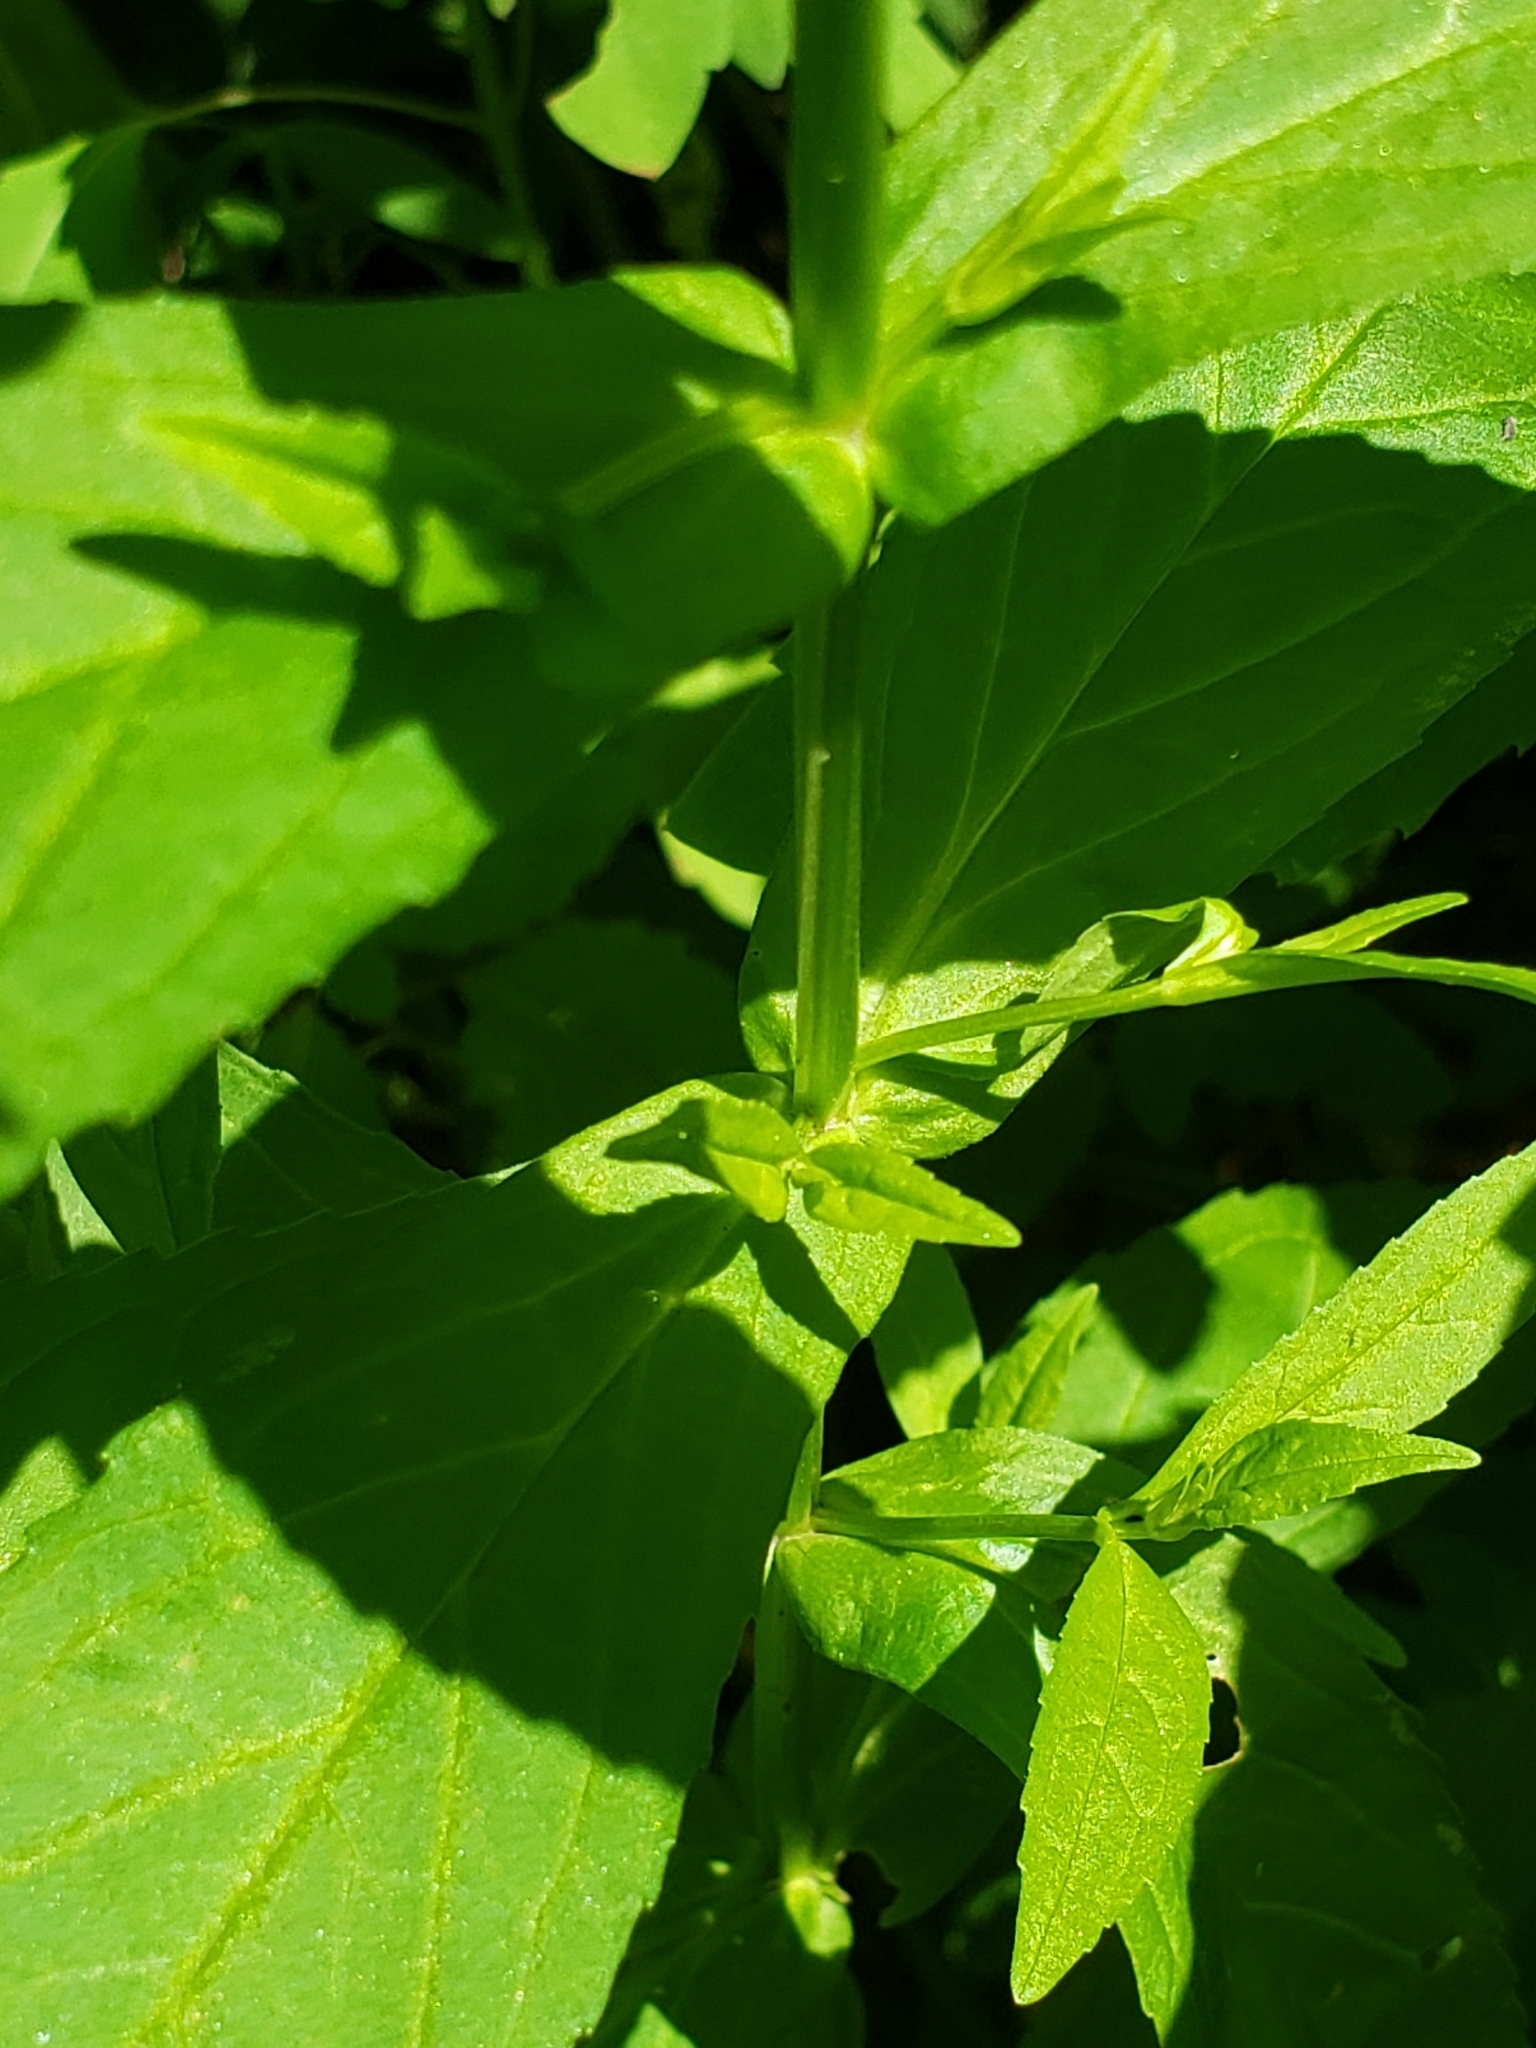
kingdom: Plantae
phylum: Tracheophyta
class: Magnoliopsida
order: Lamiales
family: Phrymaceae
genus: Mimulus
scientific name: Mimulus ringens
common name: Allegheny monkeyflower
